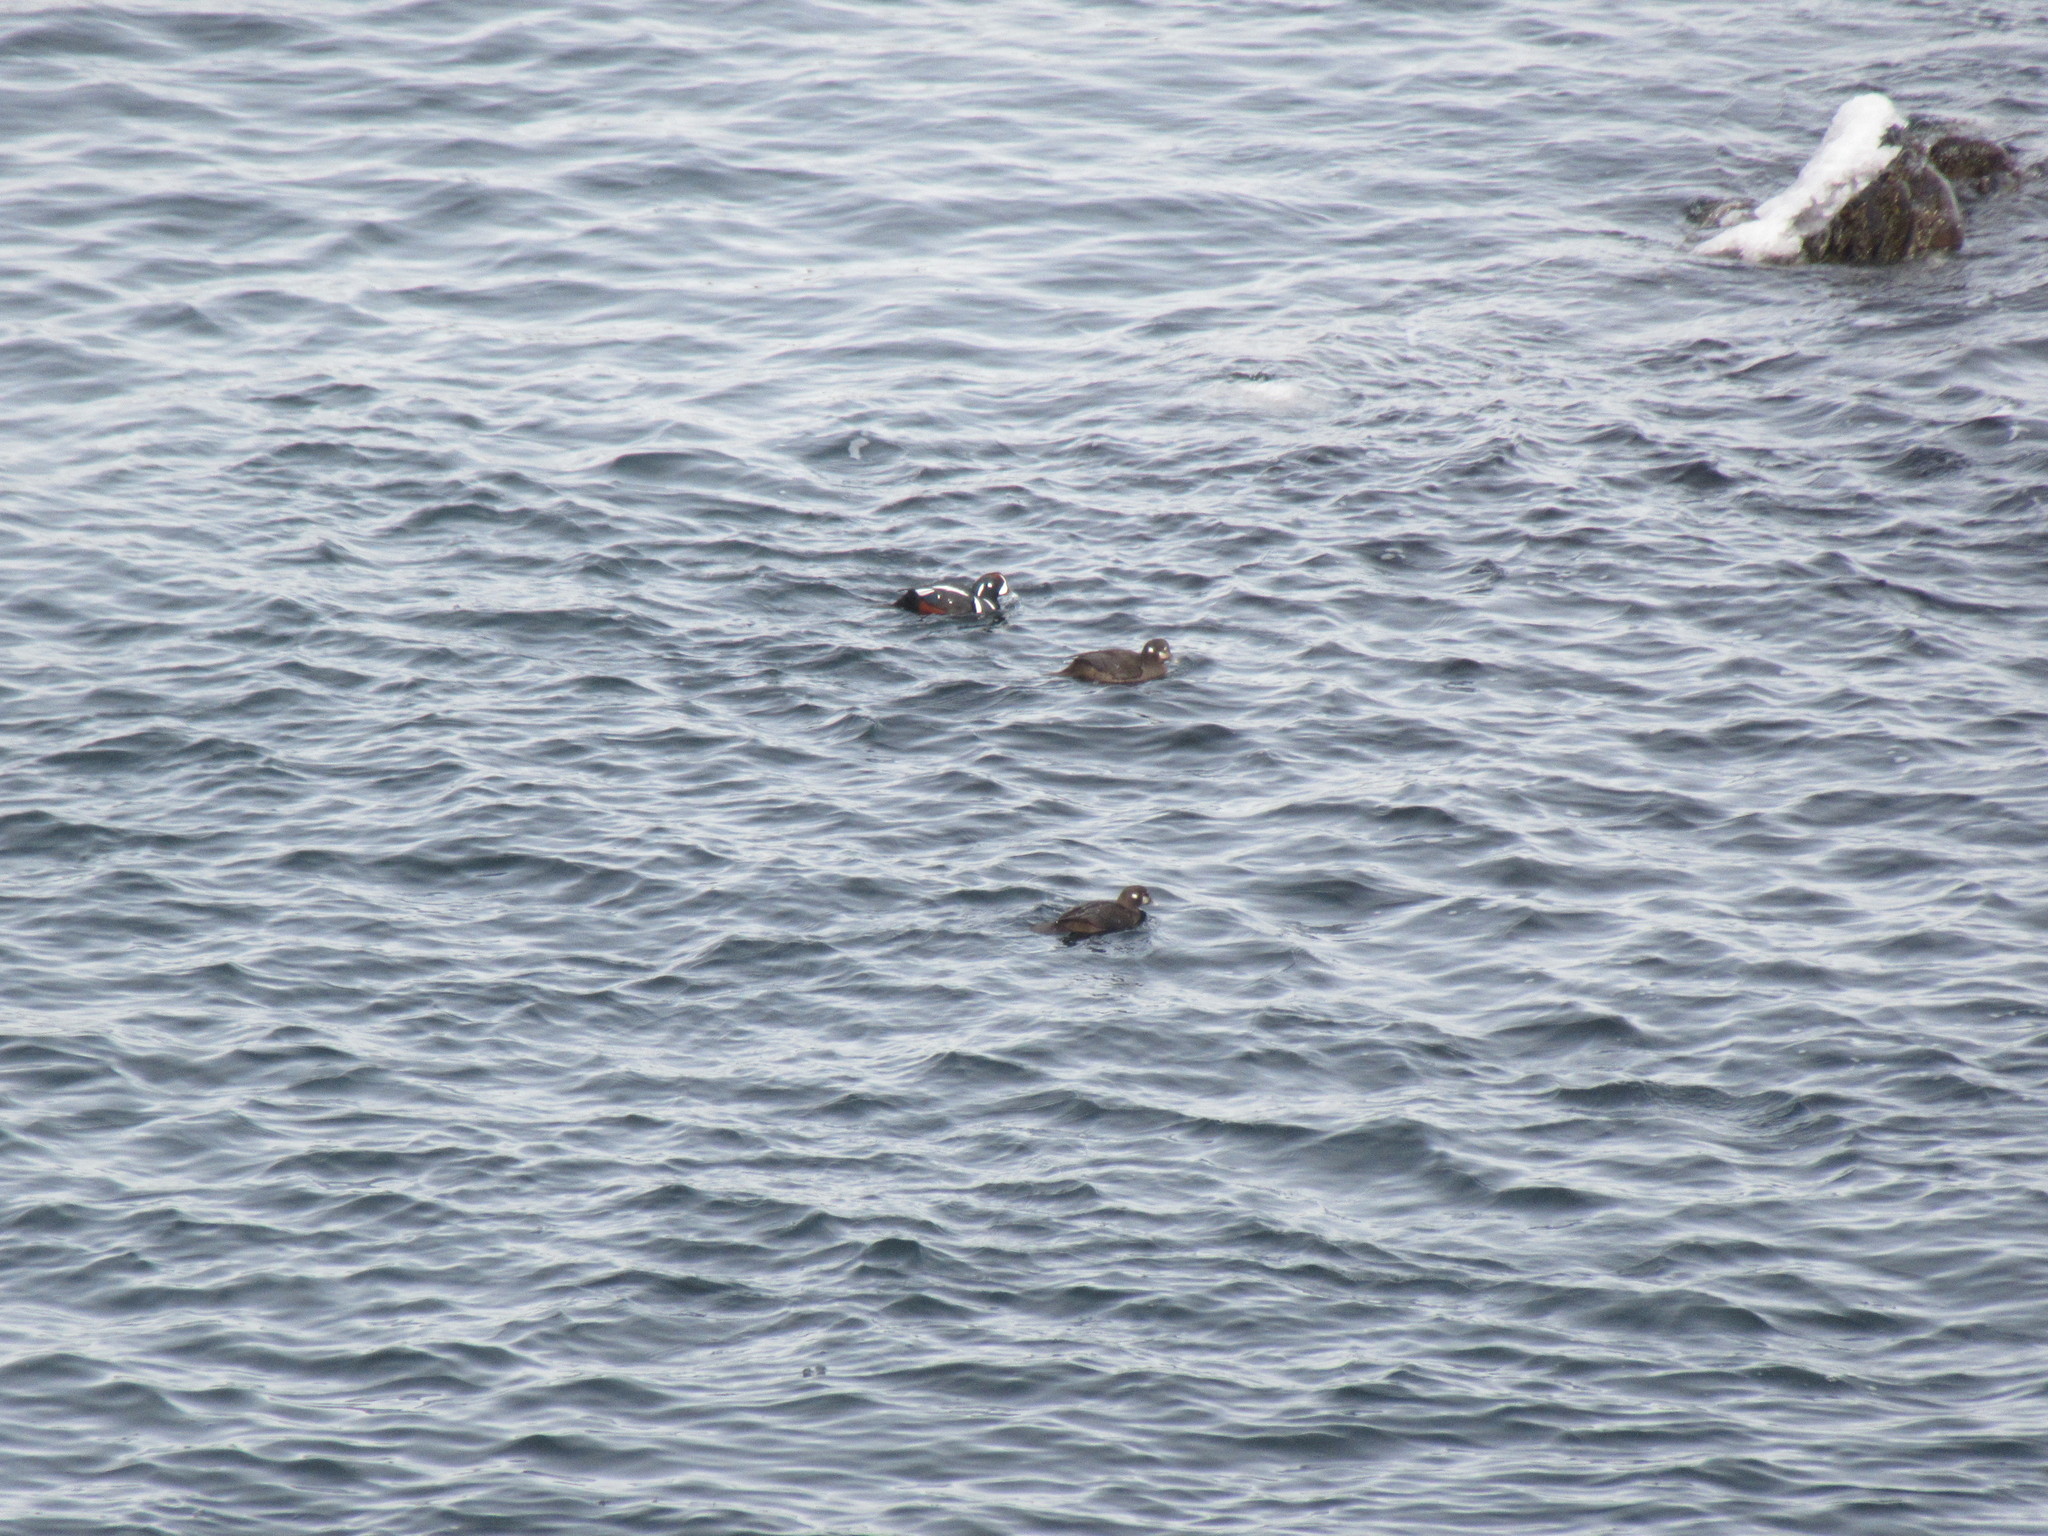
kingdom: Animalia
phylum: Chordata
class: Aves
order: Anseriformes
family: Anatidae
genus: Histrionicus
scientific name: Histrionicus histrionicus
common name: Harlequin duck
